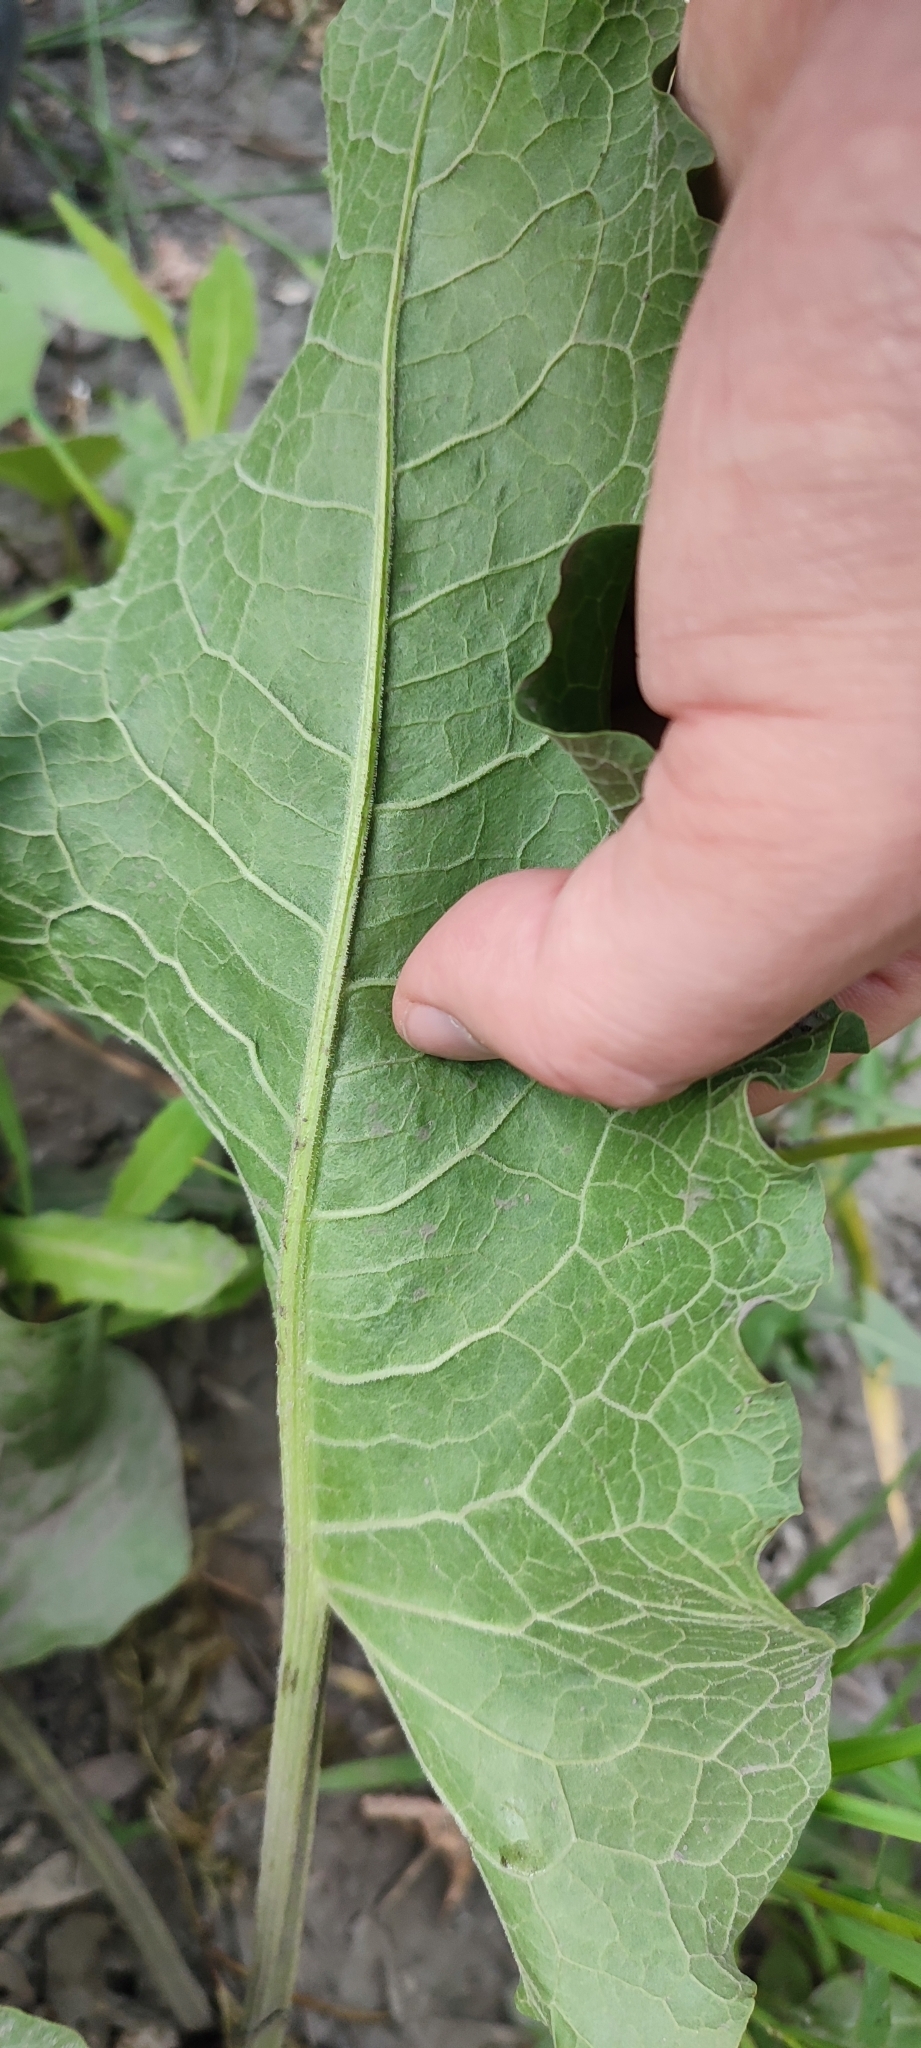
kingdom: Plantae
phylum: Tracheophyta
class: Magnoliopsida
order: Caryophyllales
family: Polygonaceae
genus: Rumex
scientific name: Rumex confertus
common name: Russian dock
